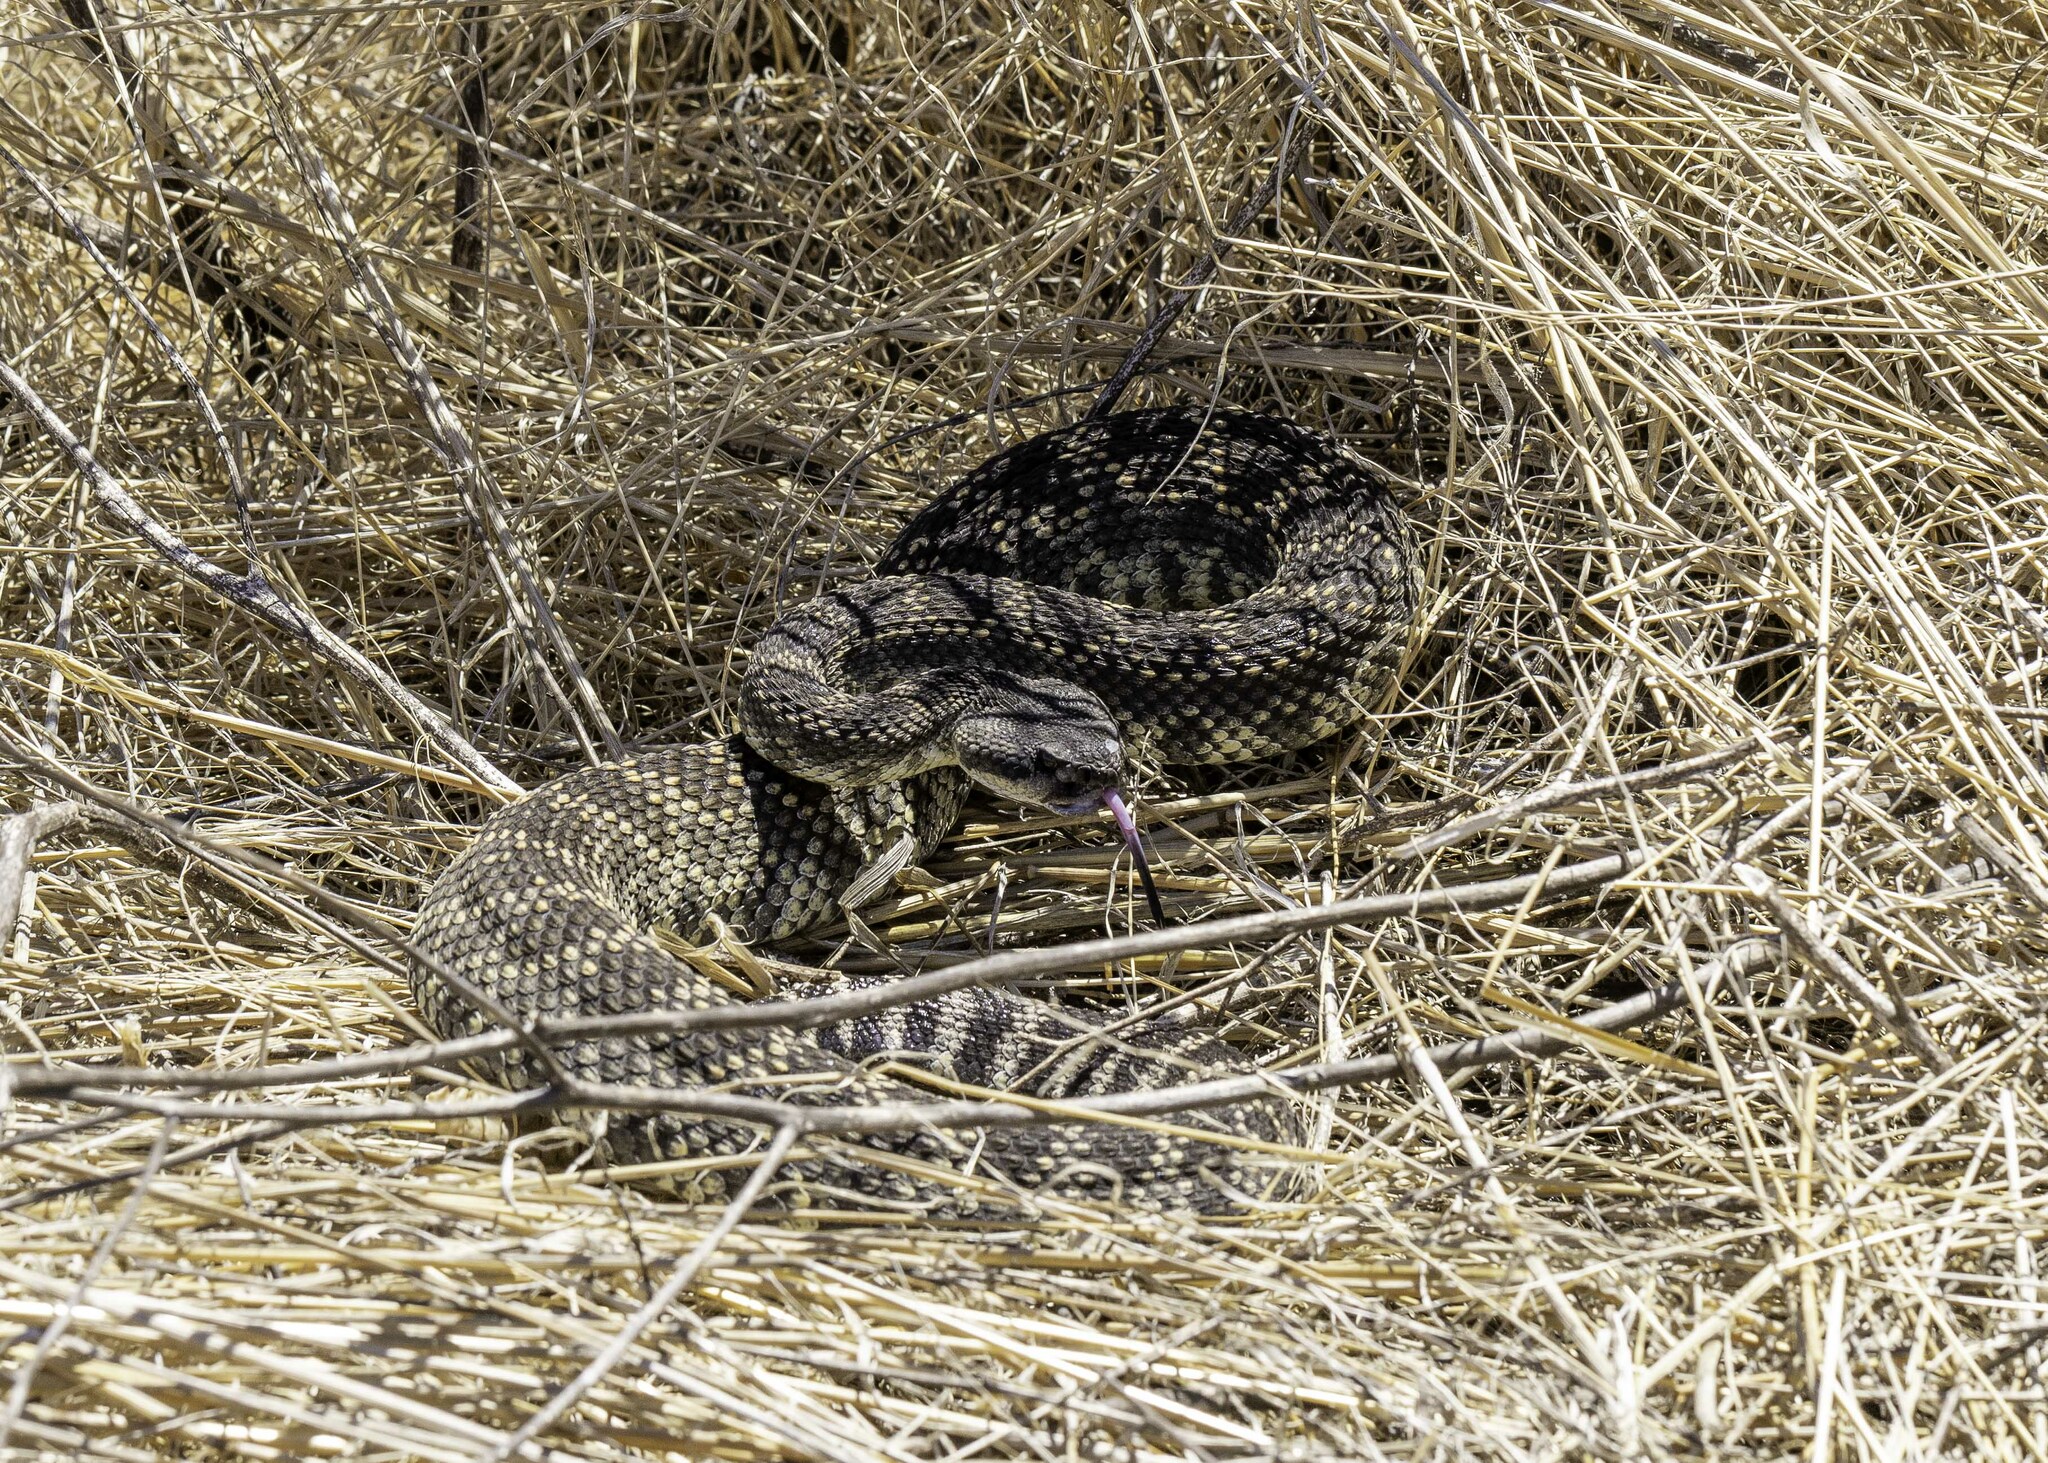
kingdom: Animalia
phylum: Chordata
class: Squamata
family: Viperidae
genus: Crotalus
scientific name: Crotalus oreganus
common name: Abyssus
